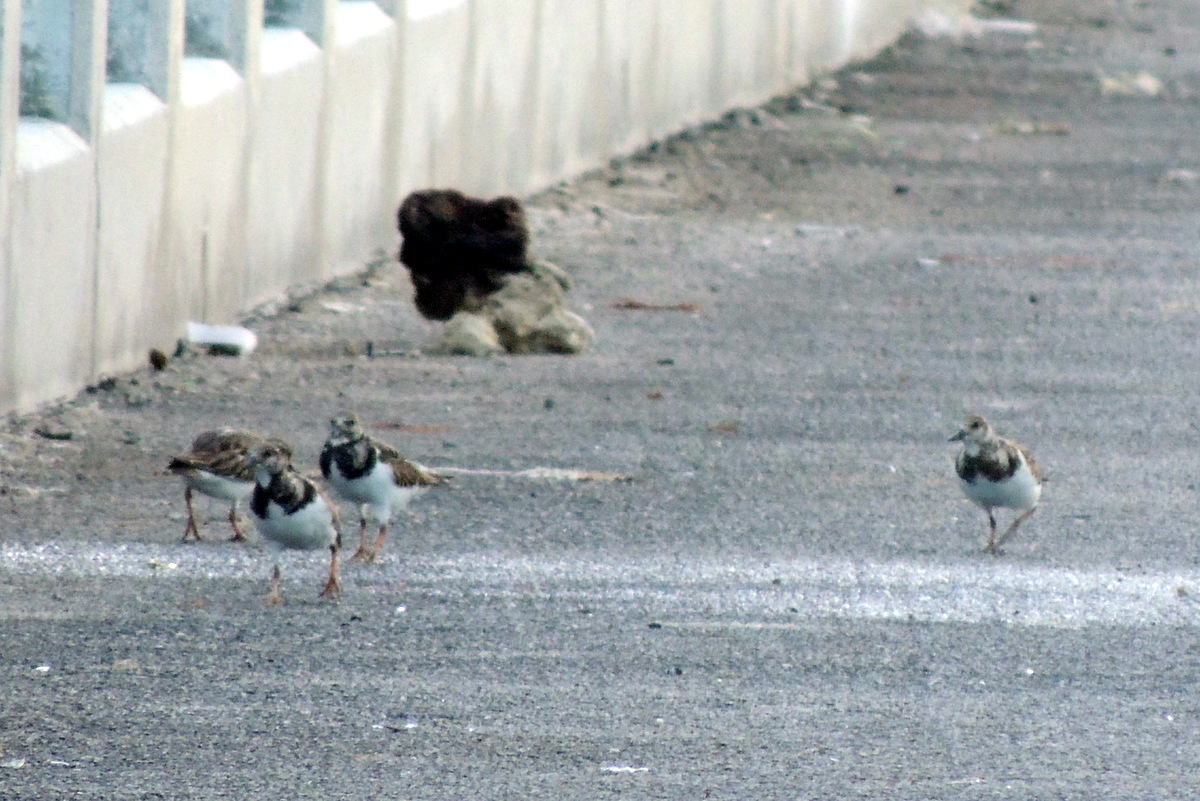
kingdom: Animalia
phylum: Chordata
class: Aves
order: Charadriiformes
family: Scolopacidae
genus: Arenaria
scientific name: Arenaria interpres
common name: Ruddy turnstone
